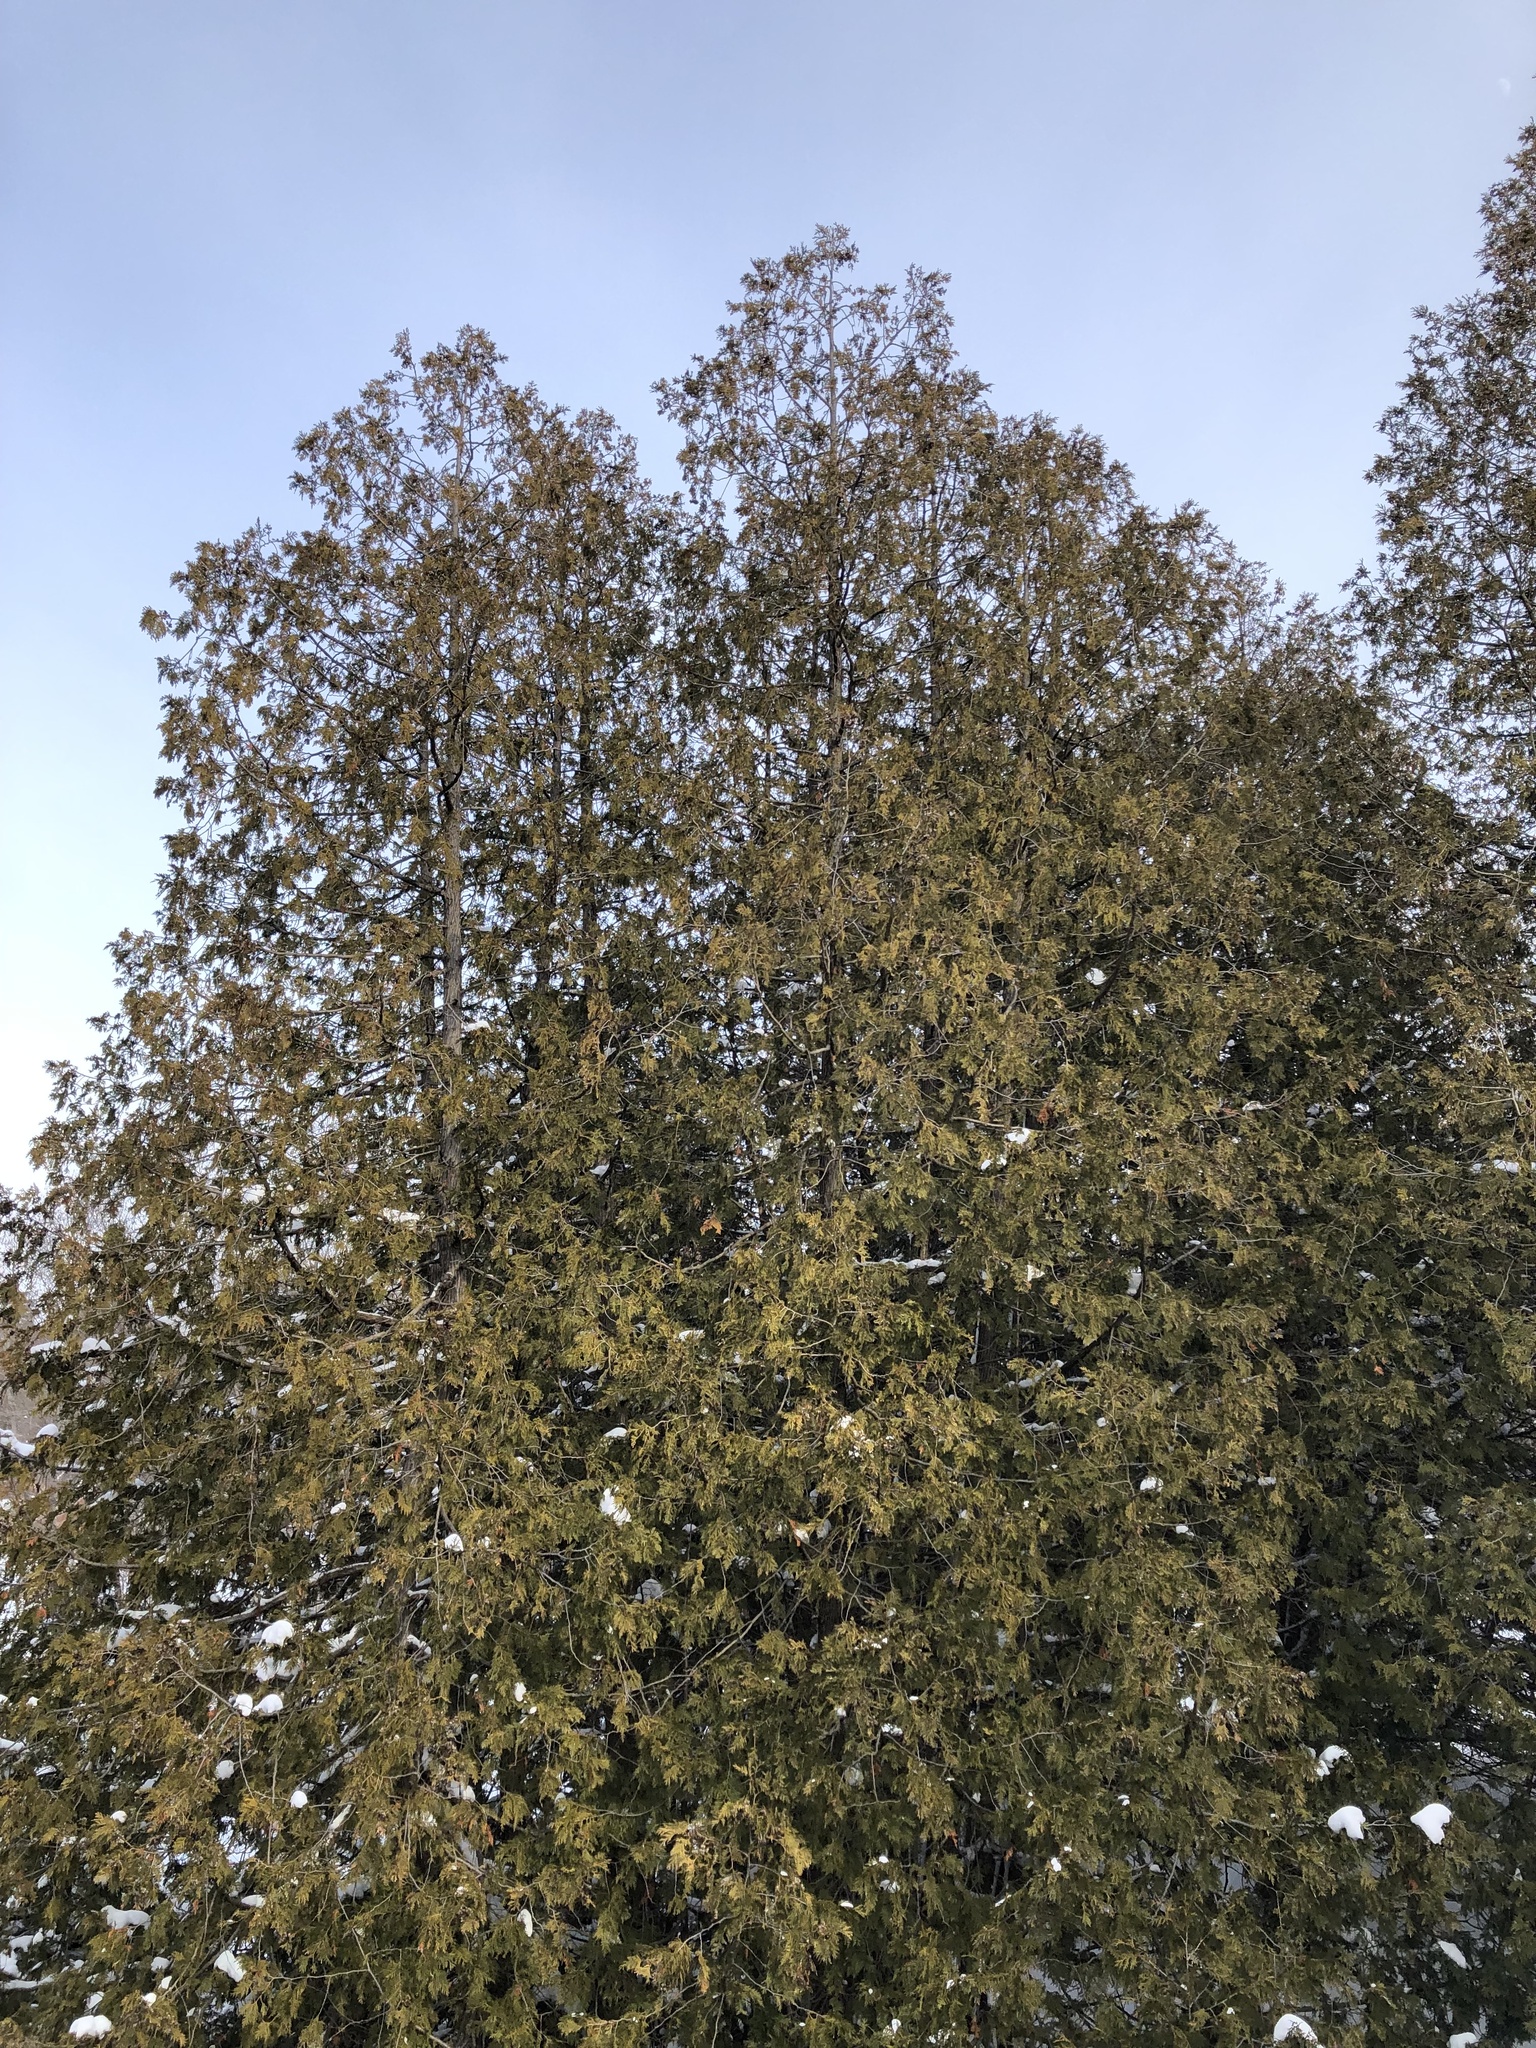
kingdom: Plantae
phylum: Tracheophyta
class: Pinopsida
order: Pinales
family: Cupressaceae
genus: Thuja
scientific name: Thuja occidentalis
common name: Northern white-cedar
